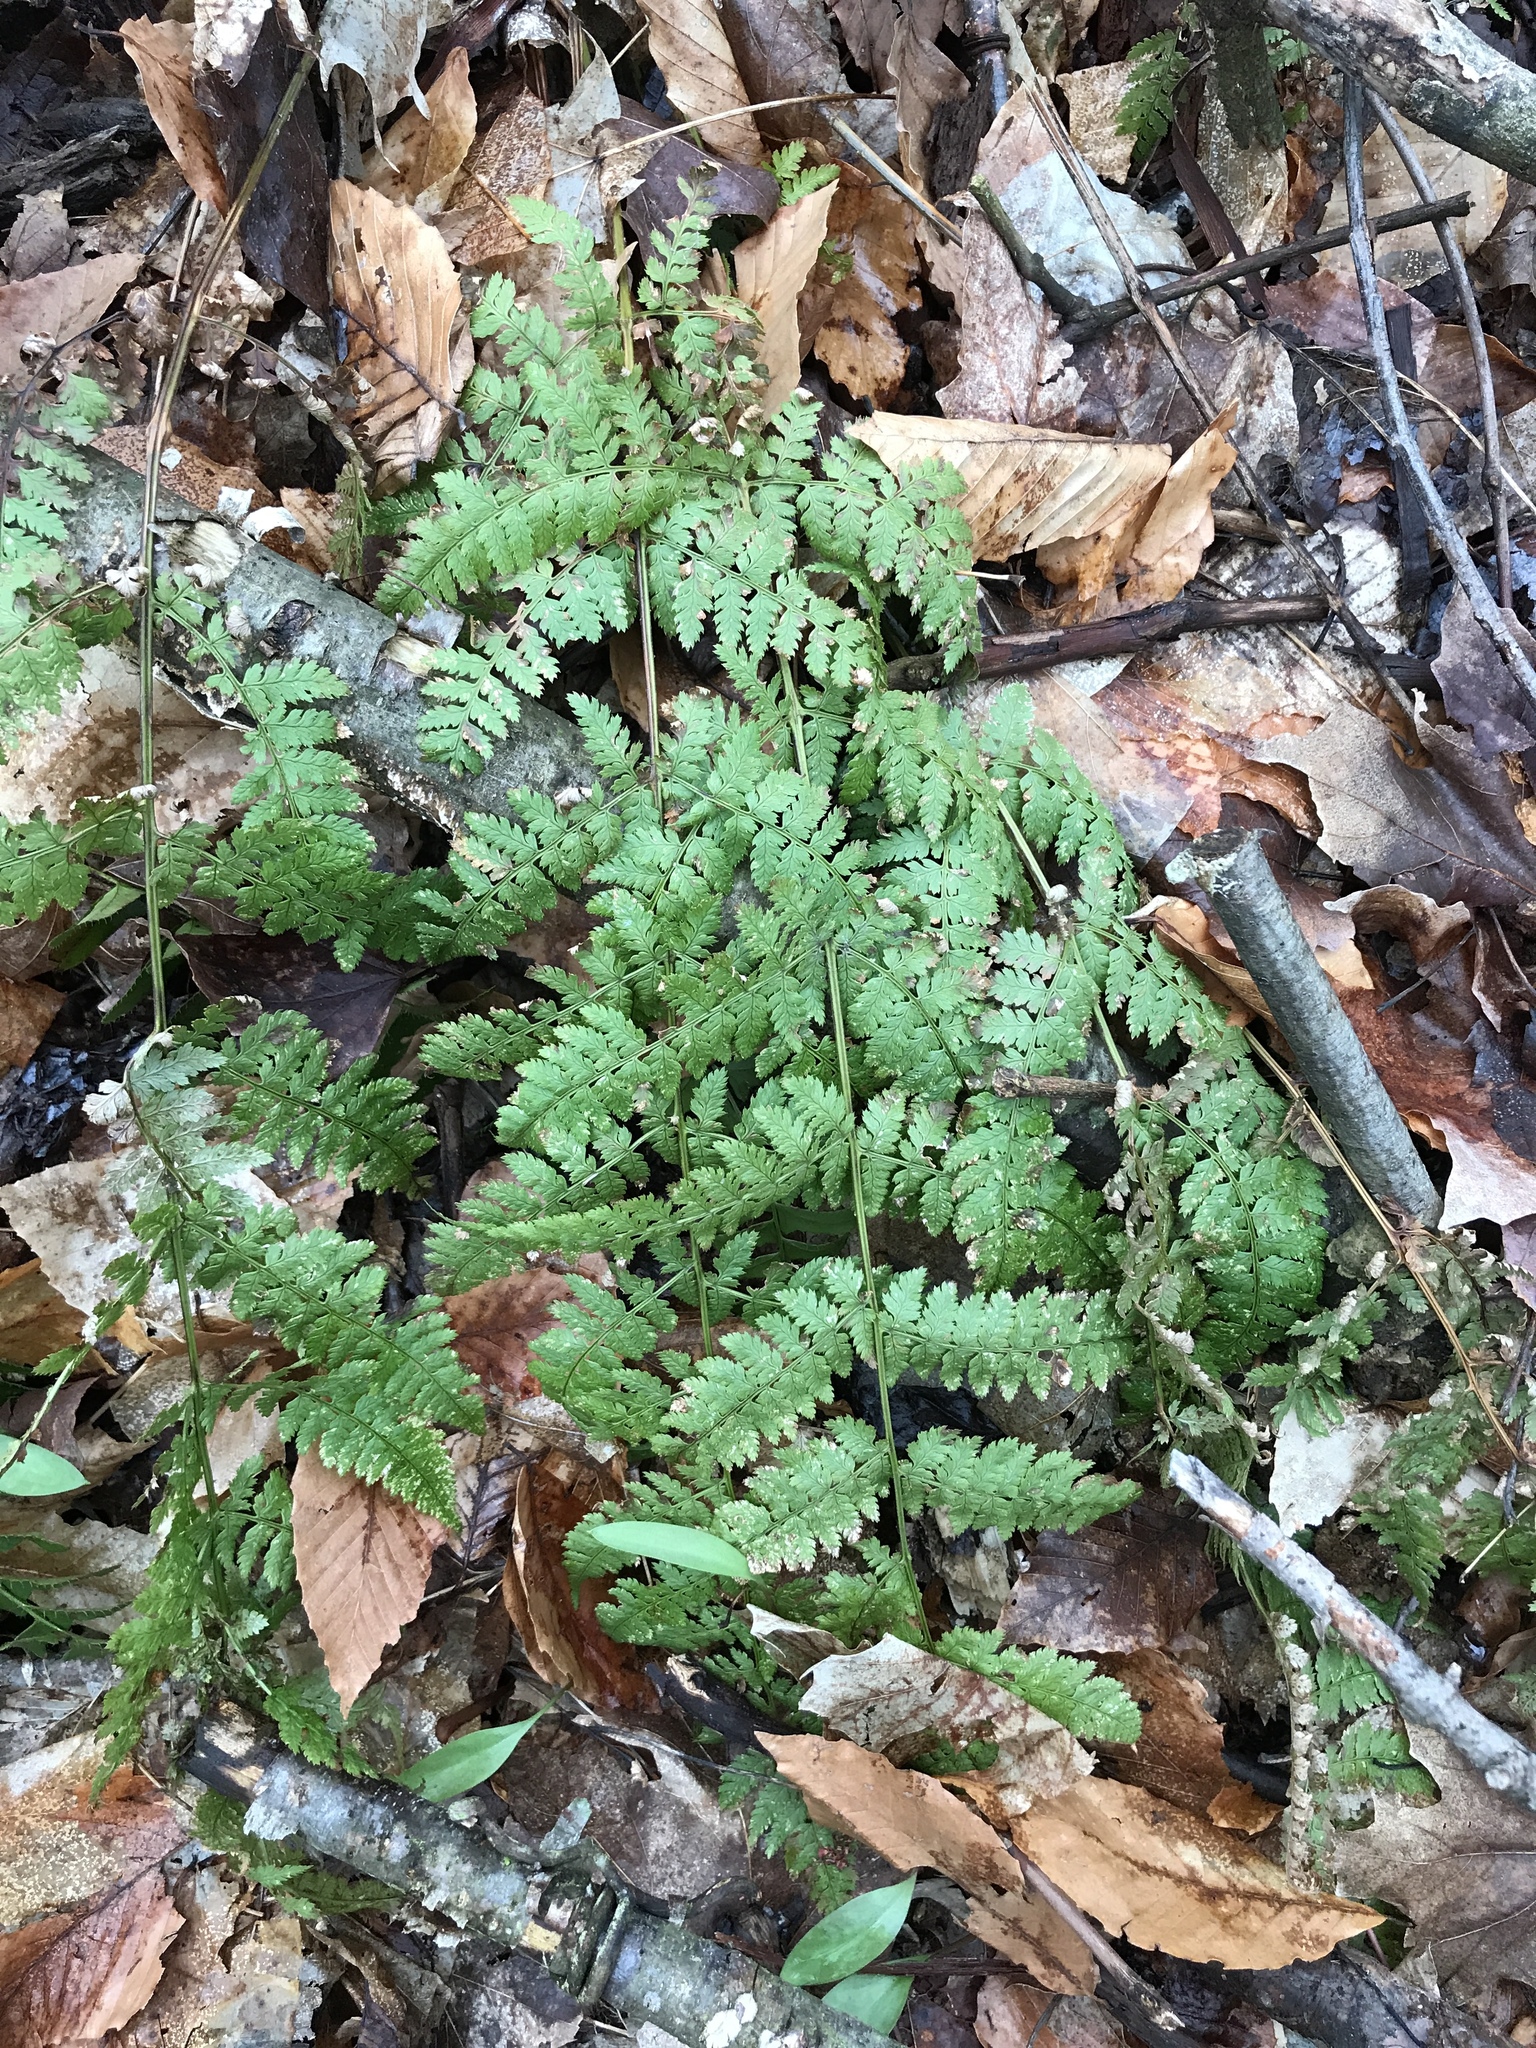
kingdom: Plantae
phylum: Tracheophyta
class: Polypodiopsida
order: Polypodiales
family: Dryopteridaceae
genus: Dryopteris
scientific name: Dryopteris intermedia
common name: Evergreen wood fern
